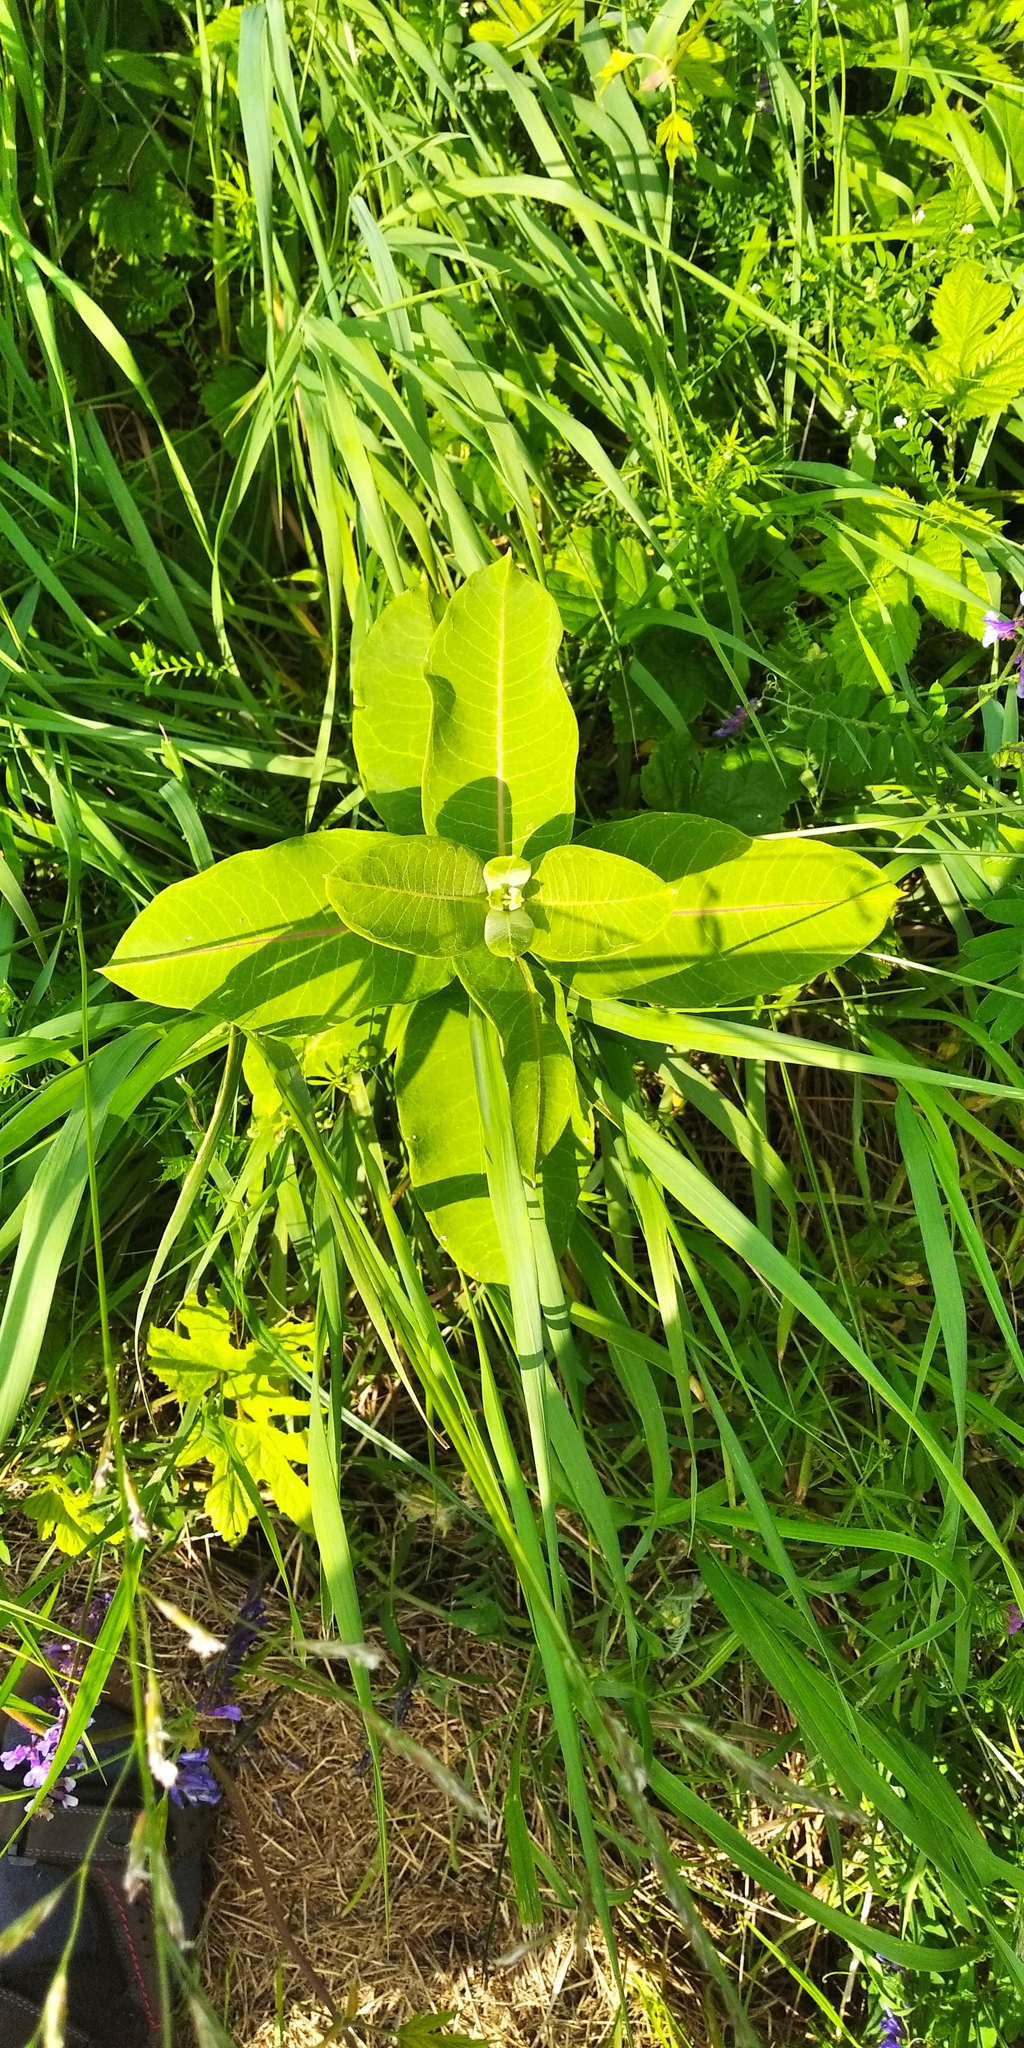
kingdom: Plantae
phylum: Tracheophyta
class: Magnoliopsida
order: Gentianales
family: Apocynaceae
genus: Asclepias
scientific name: Asclepias syriaca
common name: Common milkweed
